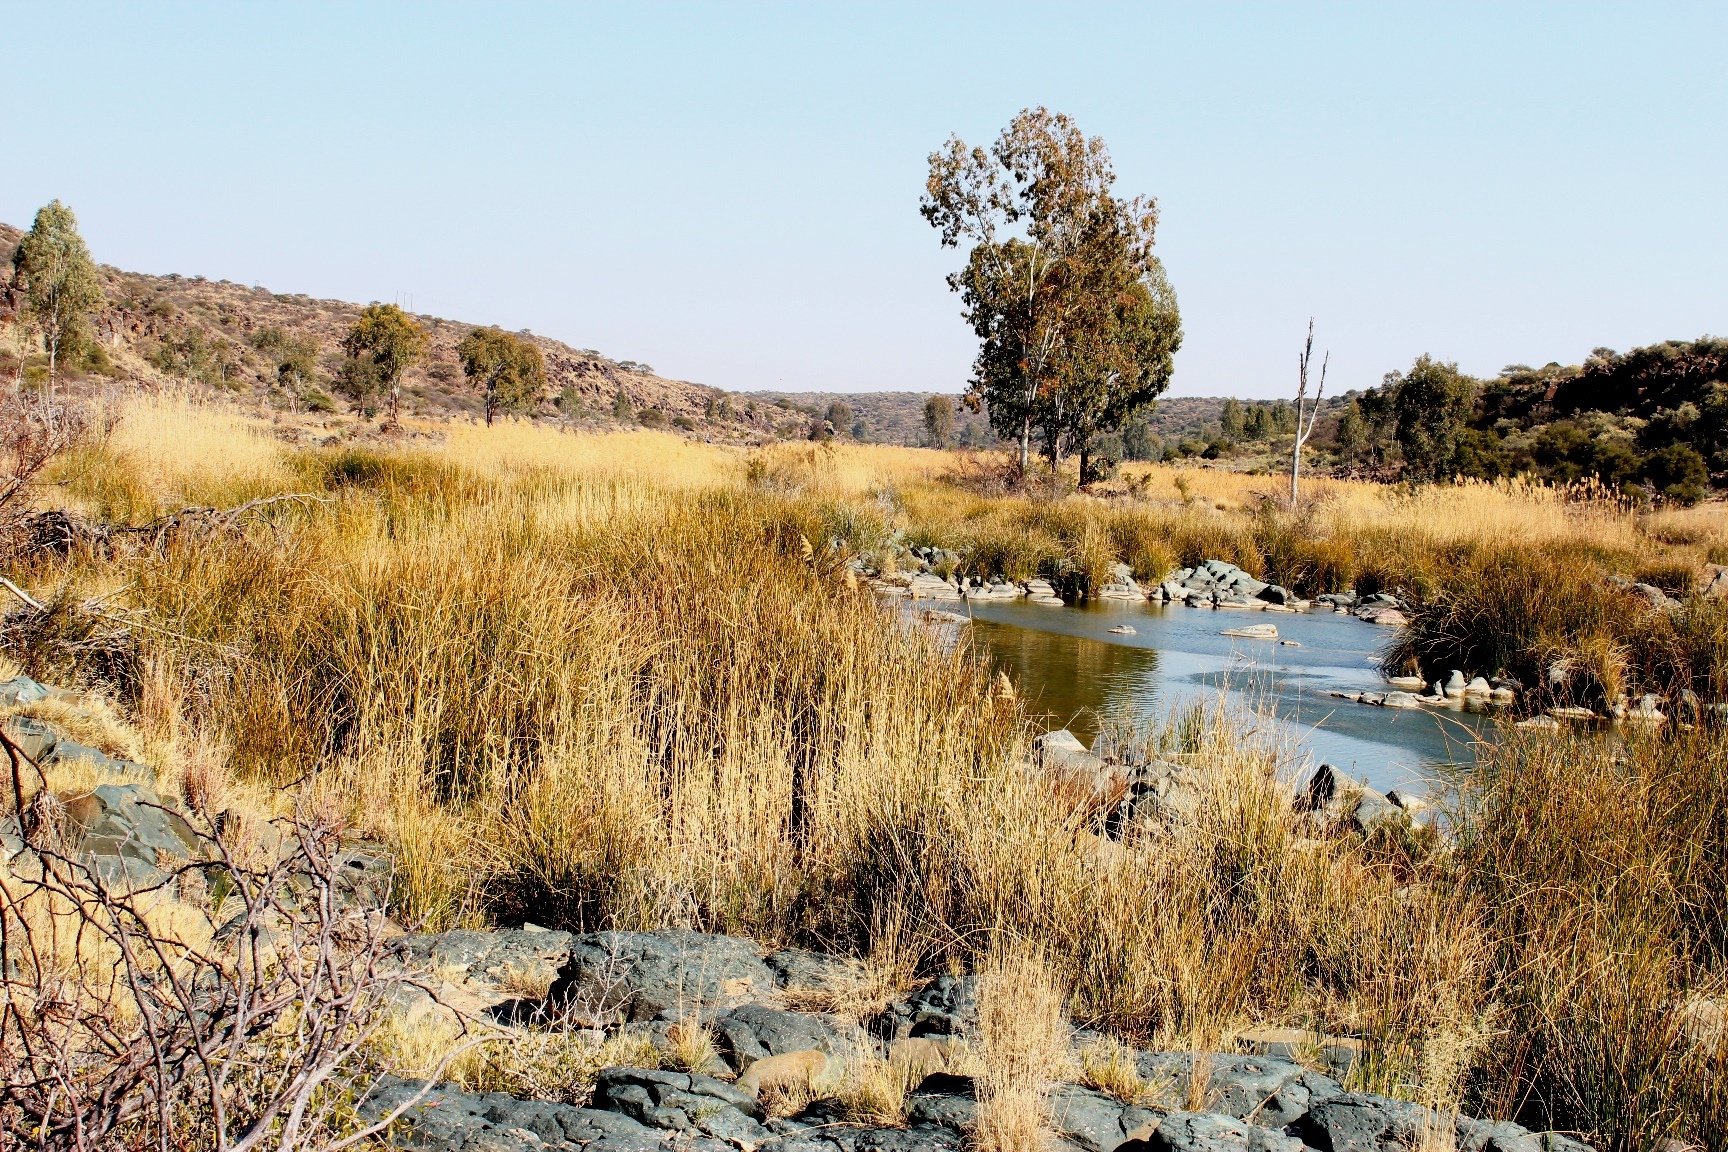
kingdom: Plantae
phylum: Tracheophyta
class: Liliopsida
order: Poales
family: Cyperaceae
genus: Pseudoschoenus
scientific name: Pseudoschoenus inanis
